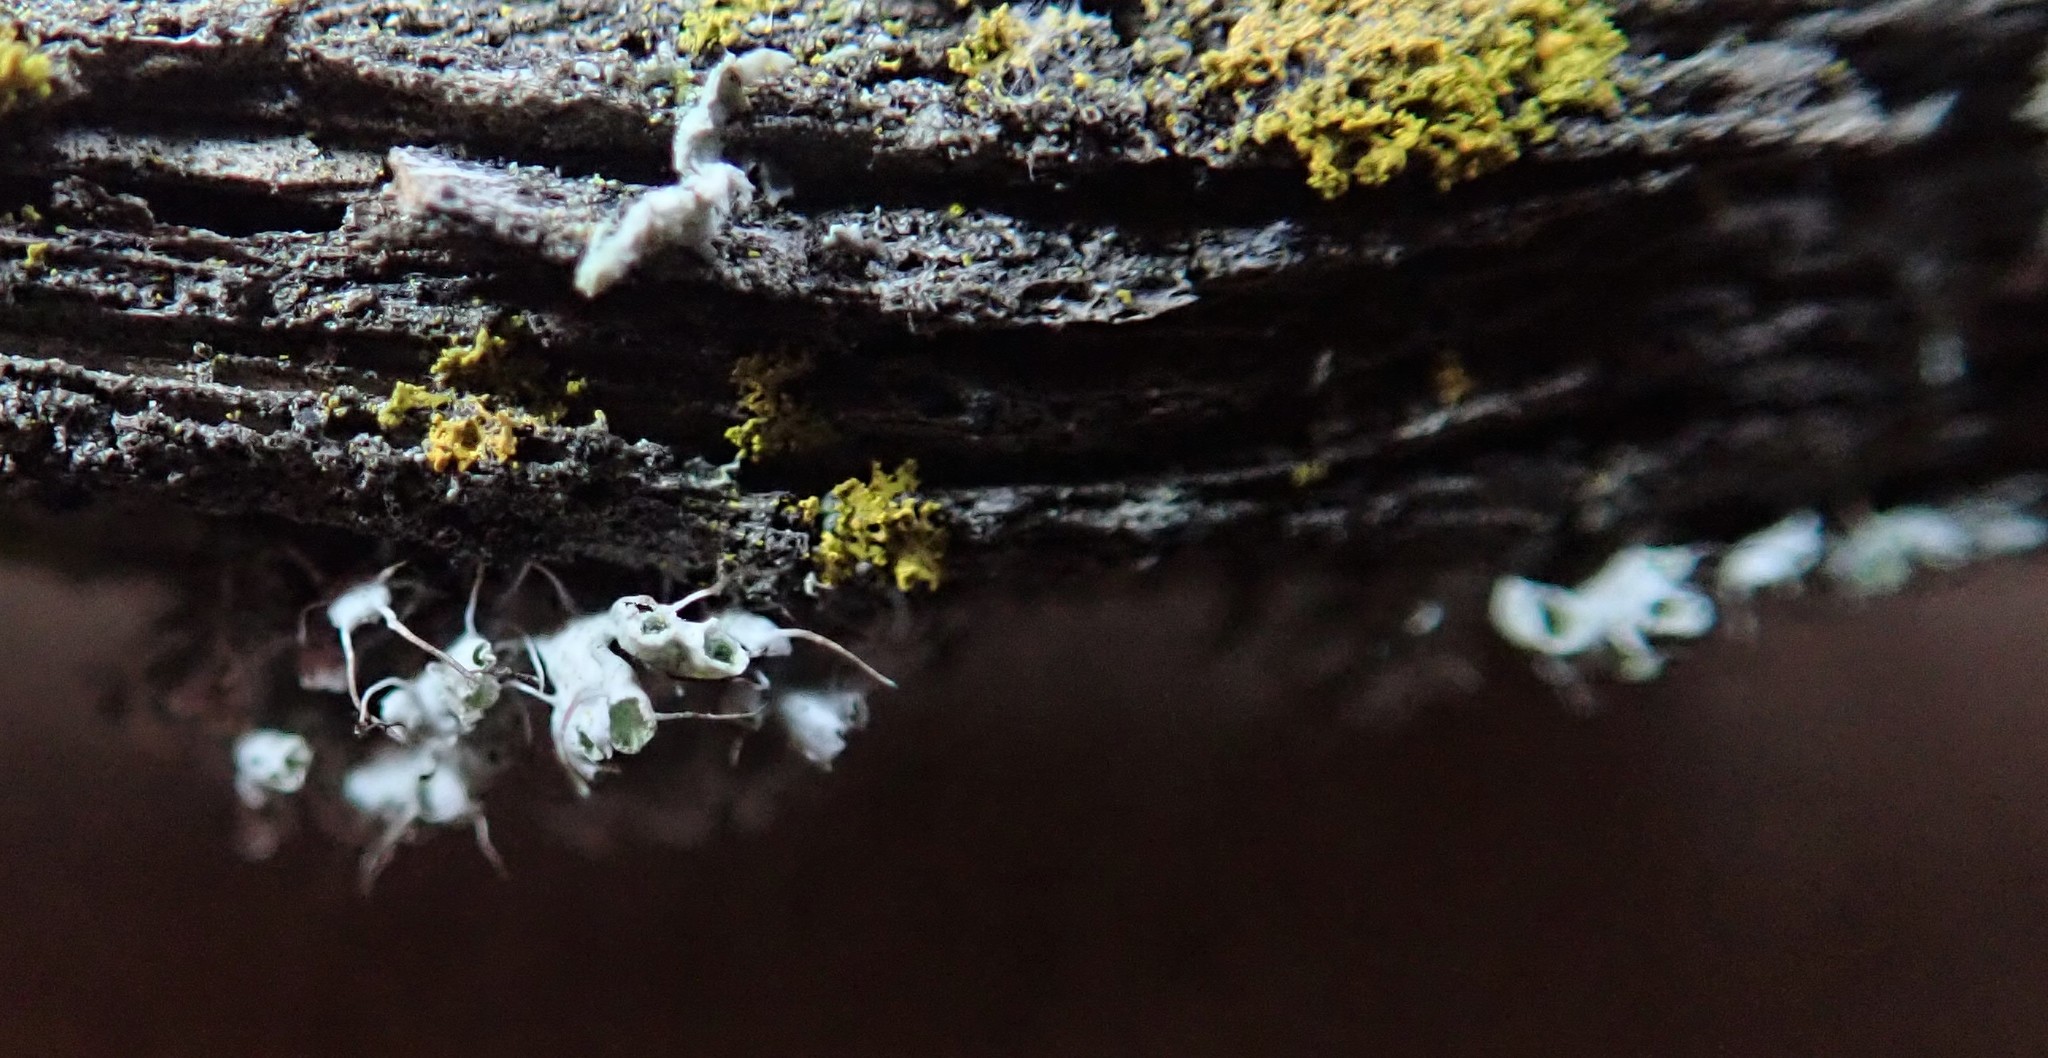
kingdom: Fungi
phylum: Ascomycota
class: Lecanoromycetes
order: Caliciales
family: Physciaceae
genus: Physcia
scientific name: Physcia adscendens
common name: Hooded rosette lichen
